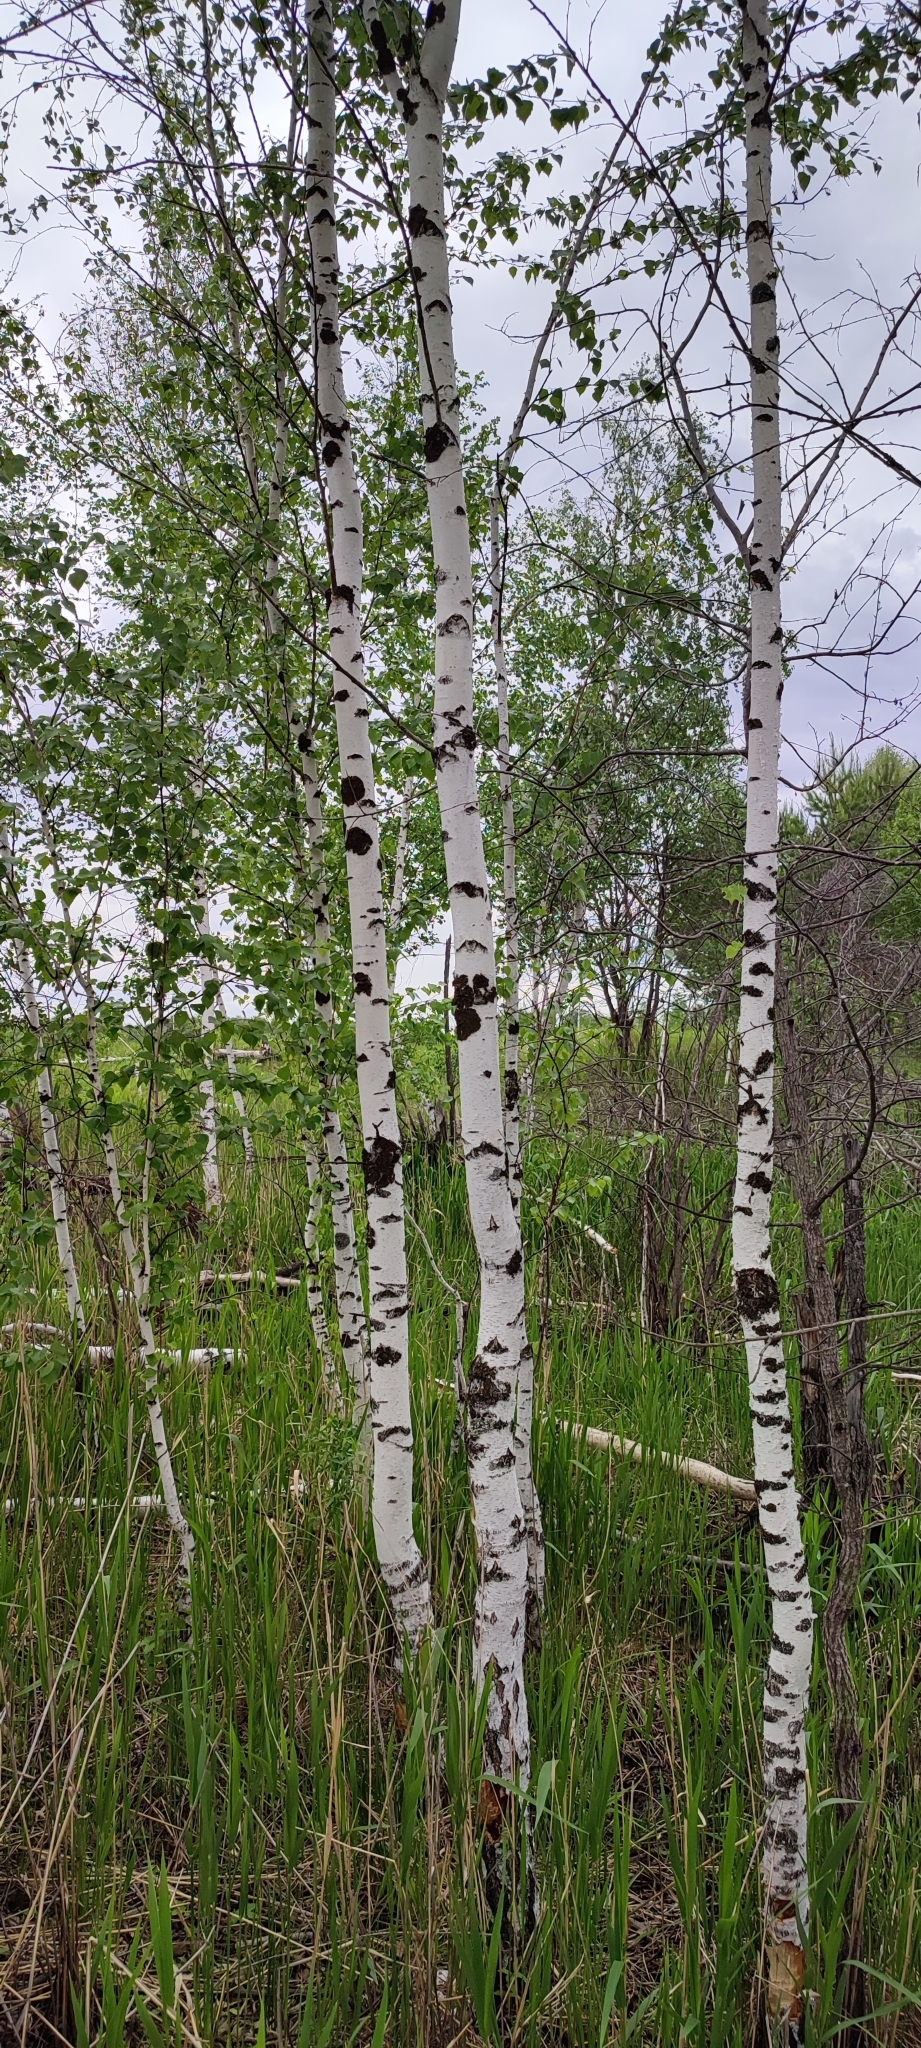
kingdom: Plantae
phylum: Tracheophyta
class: Magnoliopsida
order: Fagales
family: Betulaceae
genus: Betula
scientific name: Betula pubescens
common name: Downy birch
